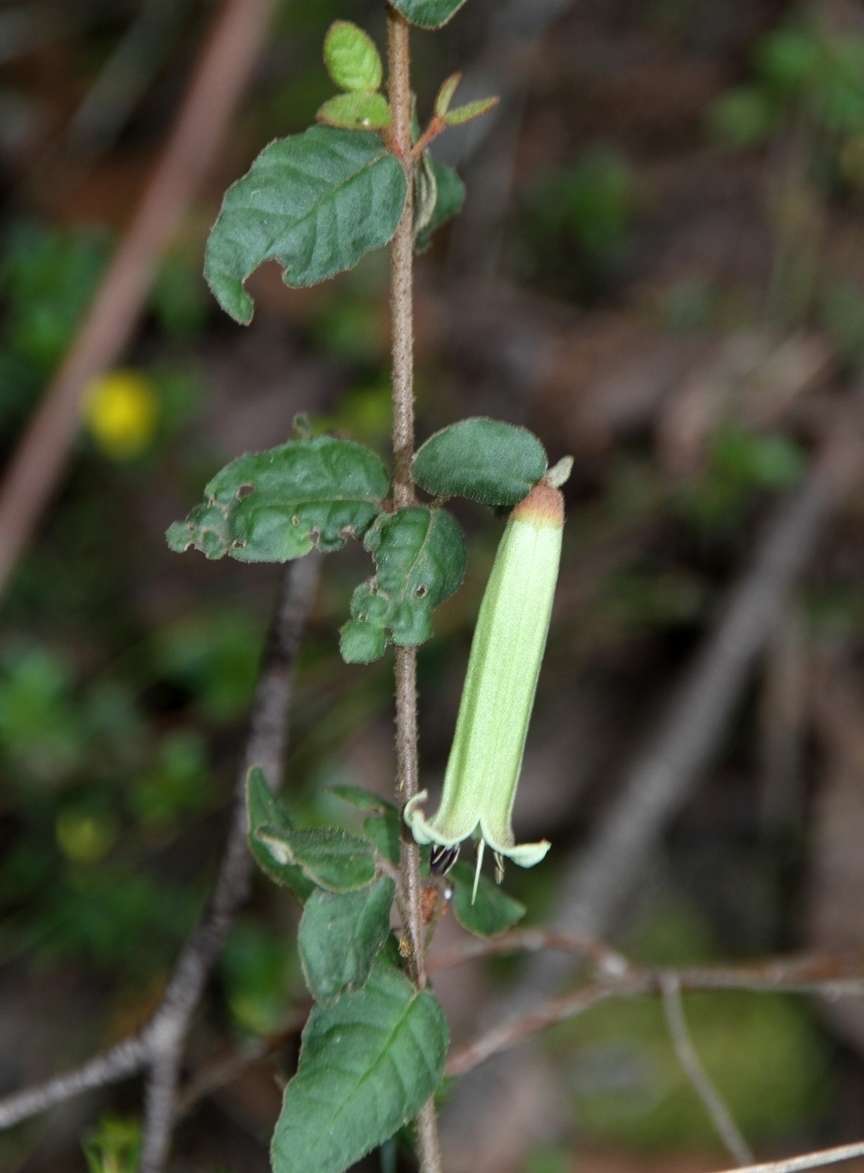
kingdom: Plantae
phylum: Tracheophyta
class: Magnoliopsida
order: Sapindales
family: Rutaceae
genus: Correa
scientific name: Correa reflexa
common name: Common correa
